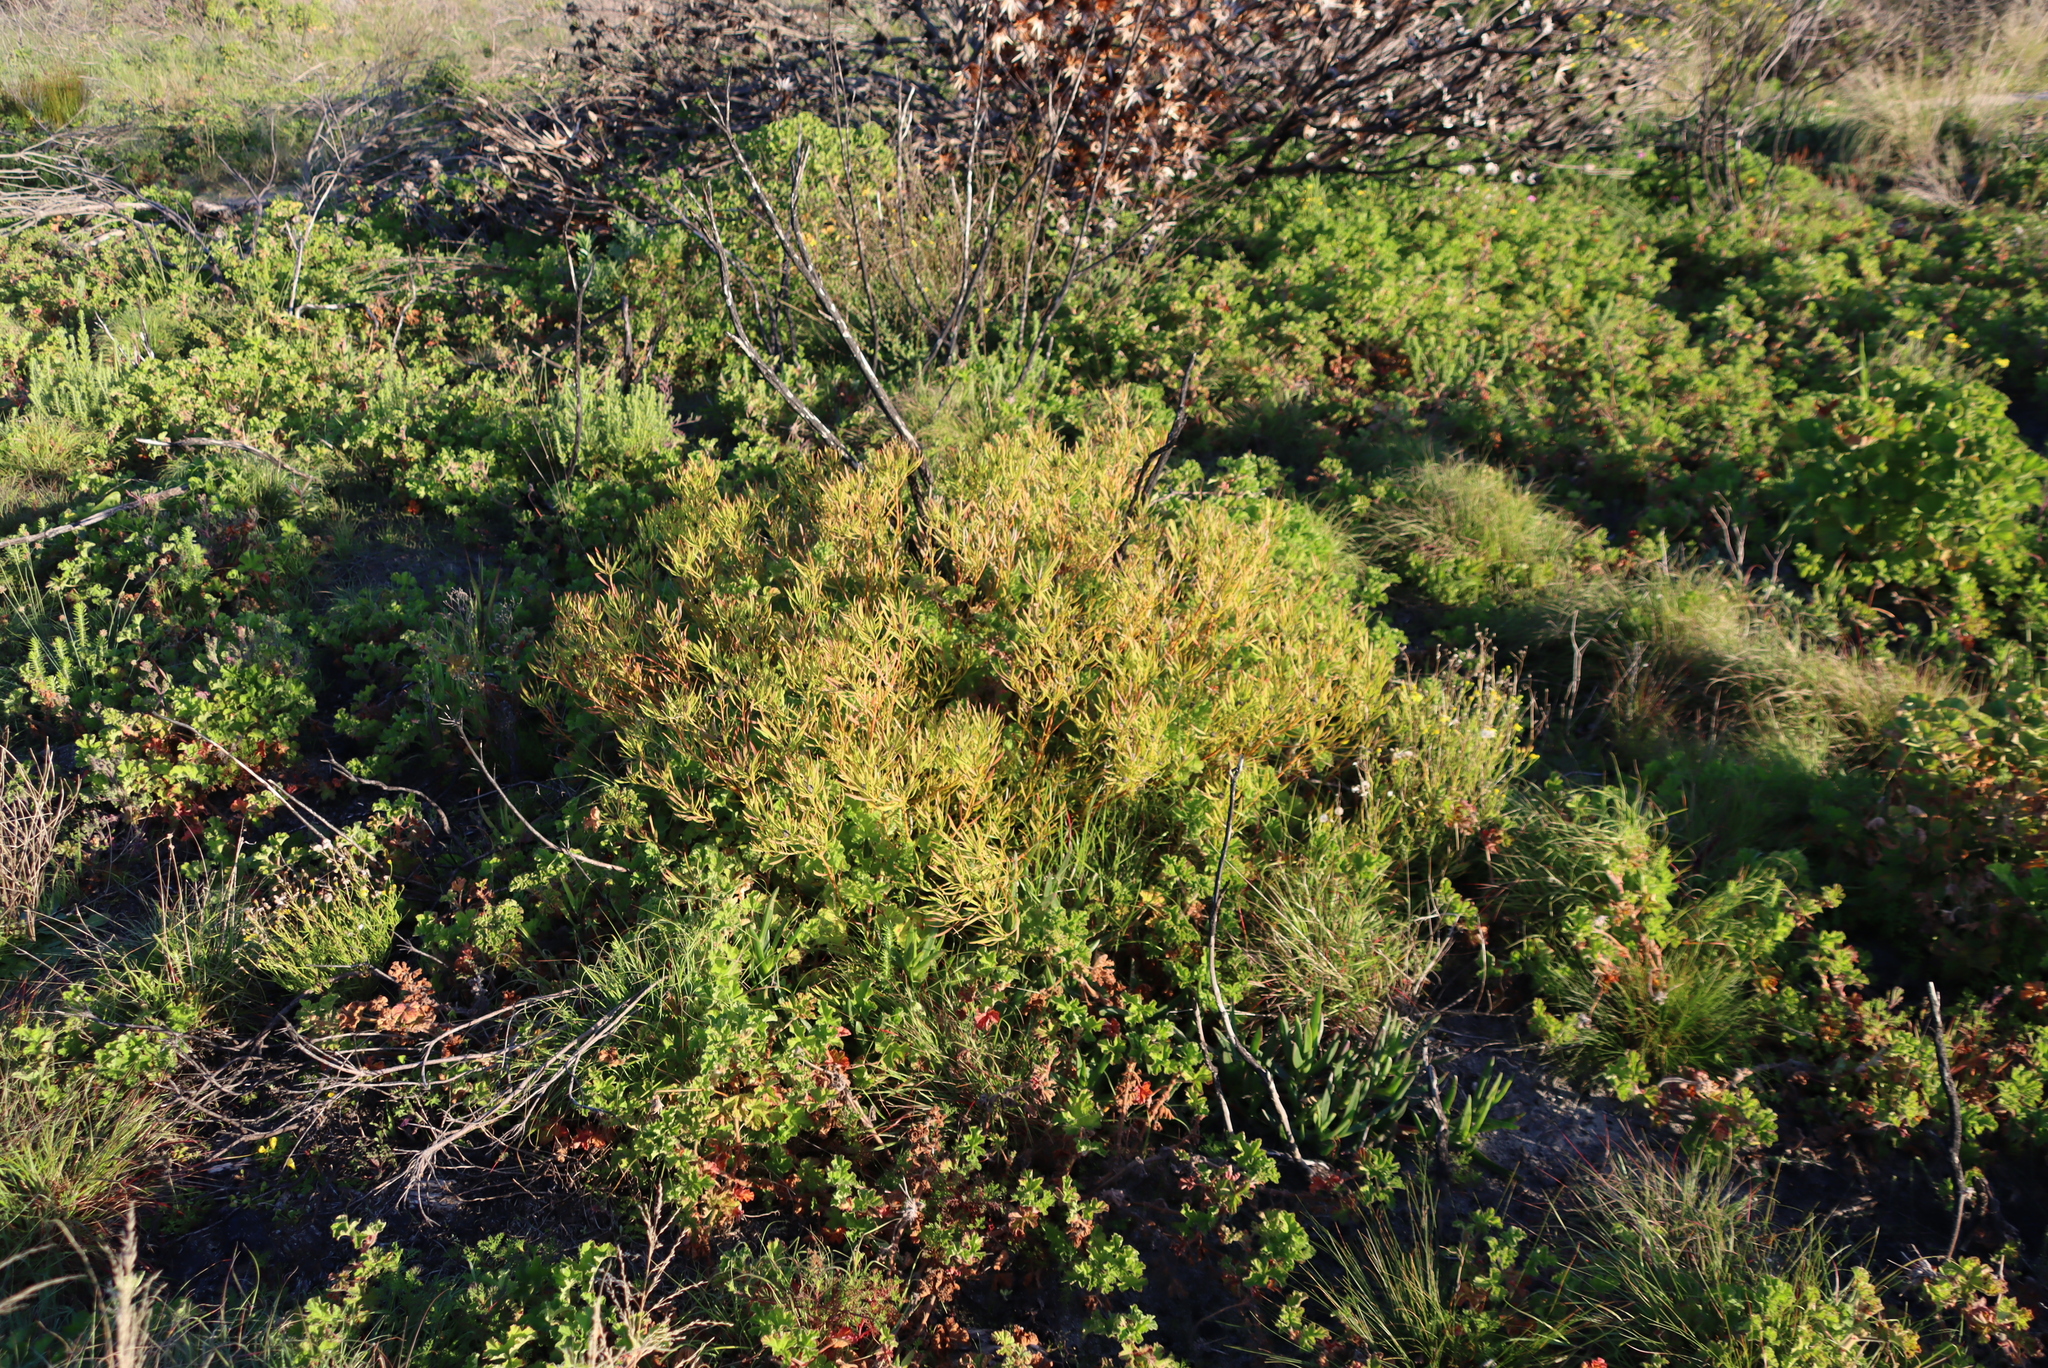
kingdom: Plantae
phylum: Tracheophyta
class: Magnoliopsida
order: Proteales
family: Proteaceae
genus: Leucadendron
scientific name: Leucadendron salignum
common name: Common sunshine conebush
